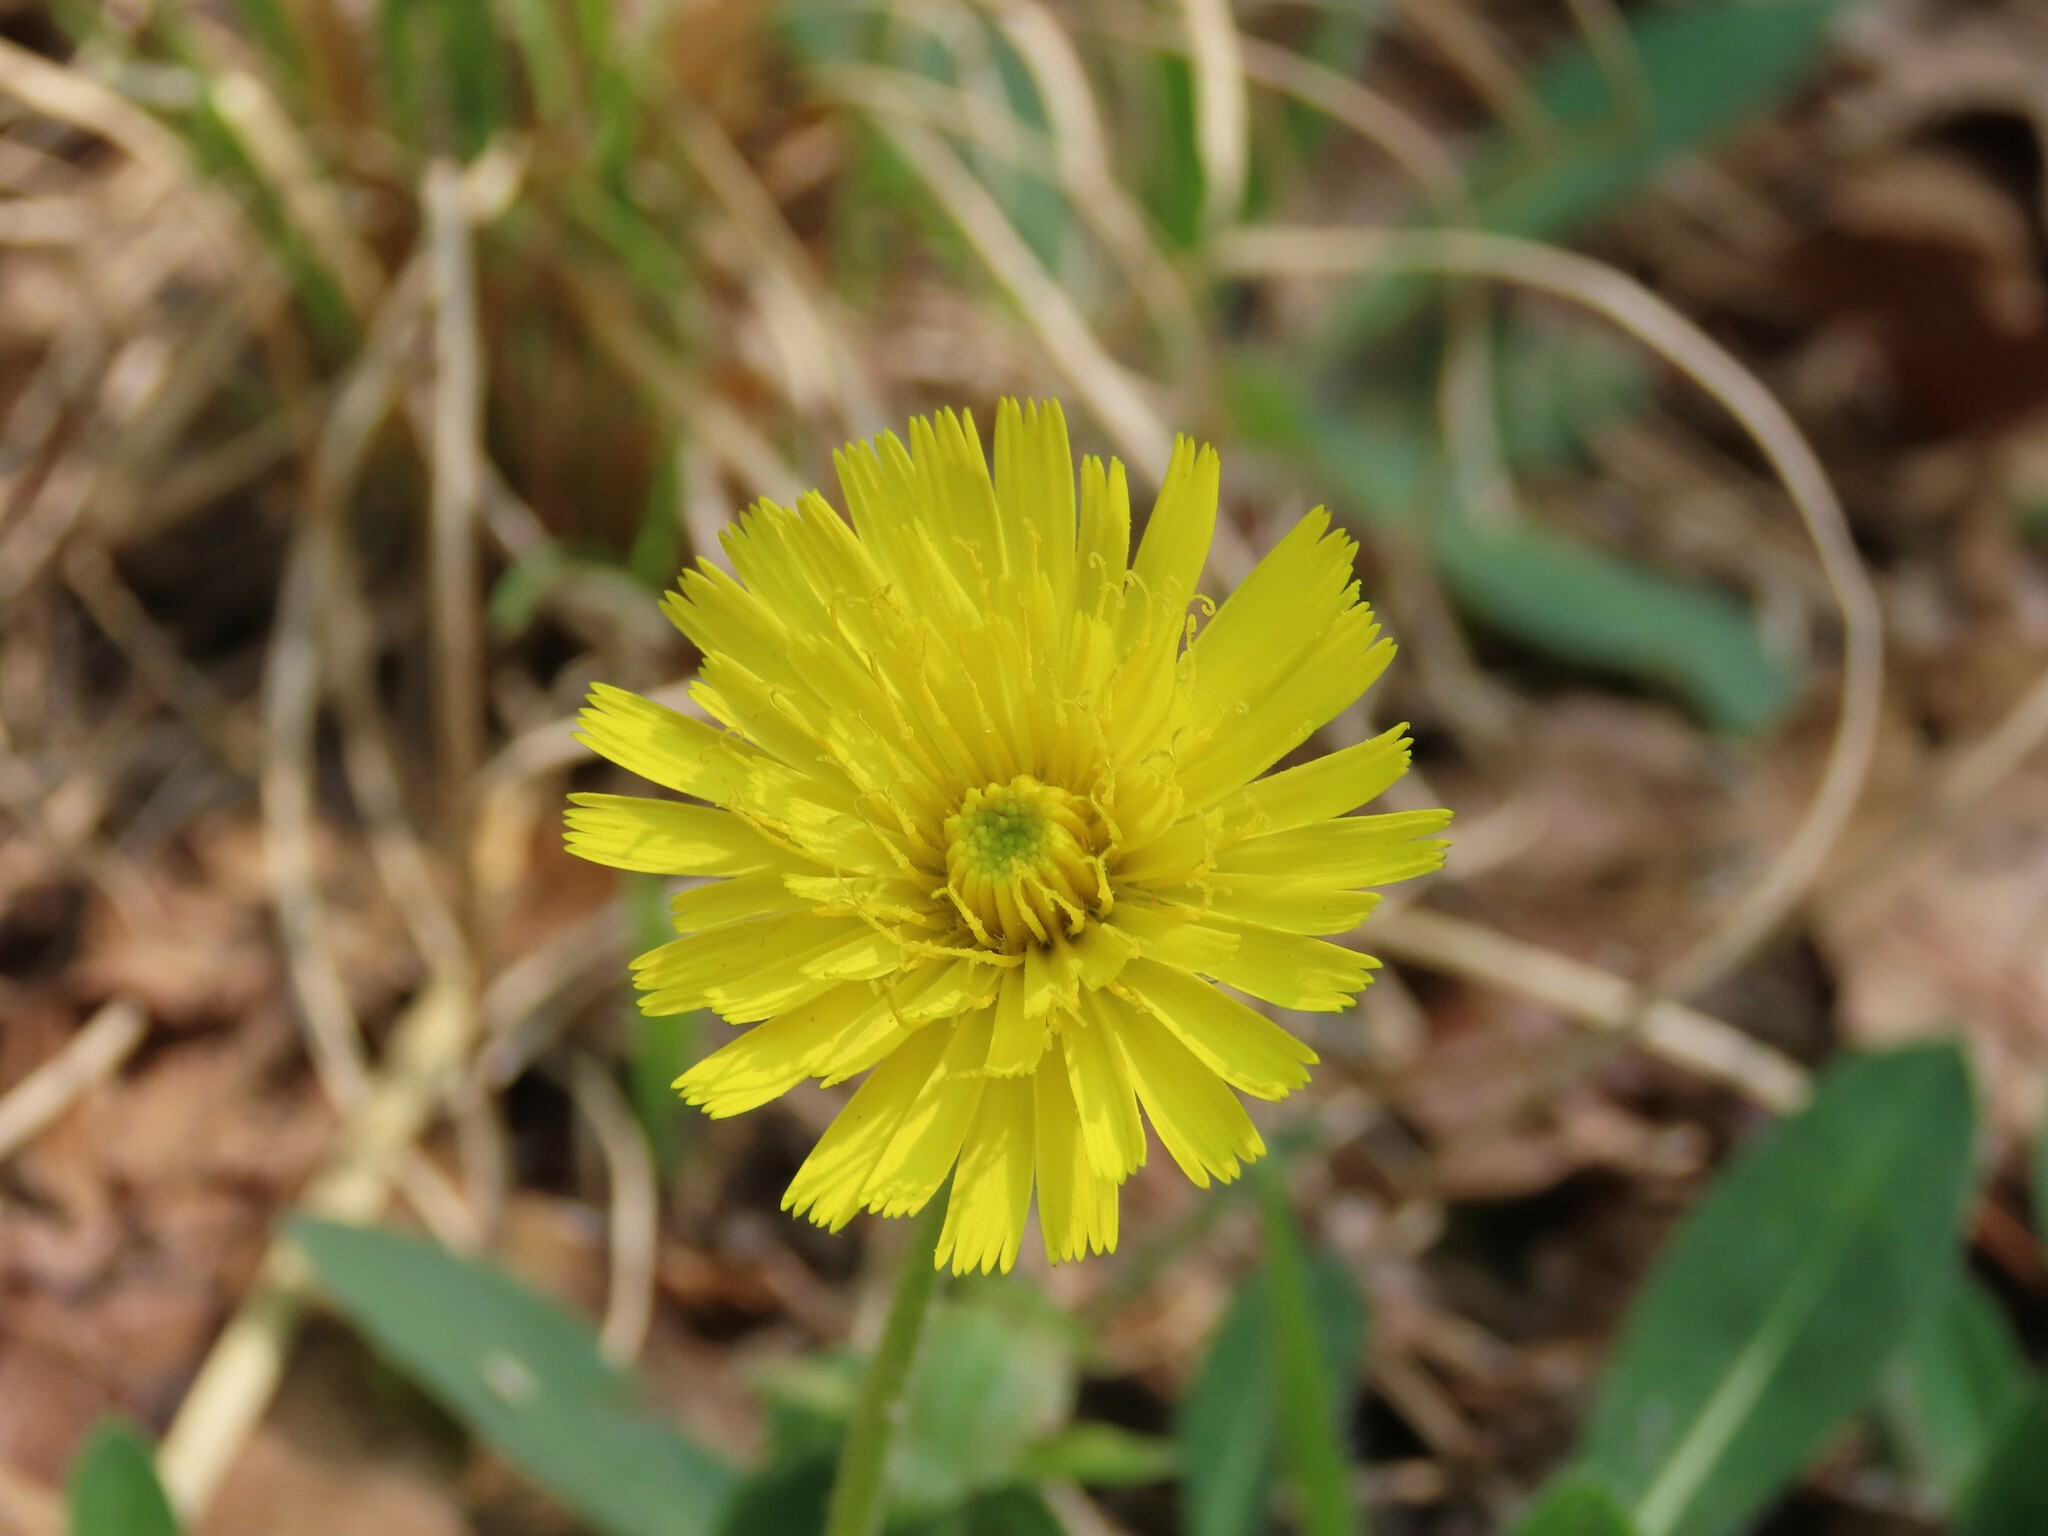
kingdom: Plantae
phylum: Tracheophyta
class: Magnoliopsida
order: Asterales
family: Asteraceae
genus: Pilosella
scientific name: Pilosella officinarum
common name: Mouse-ear hawkweed
